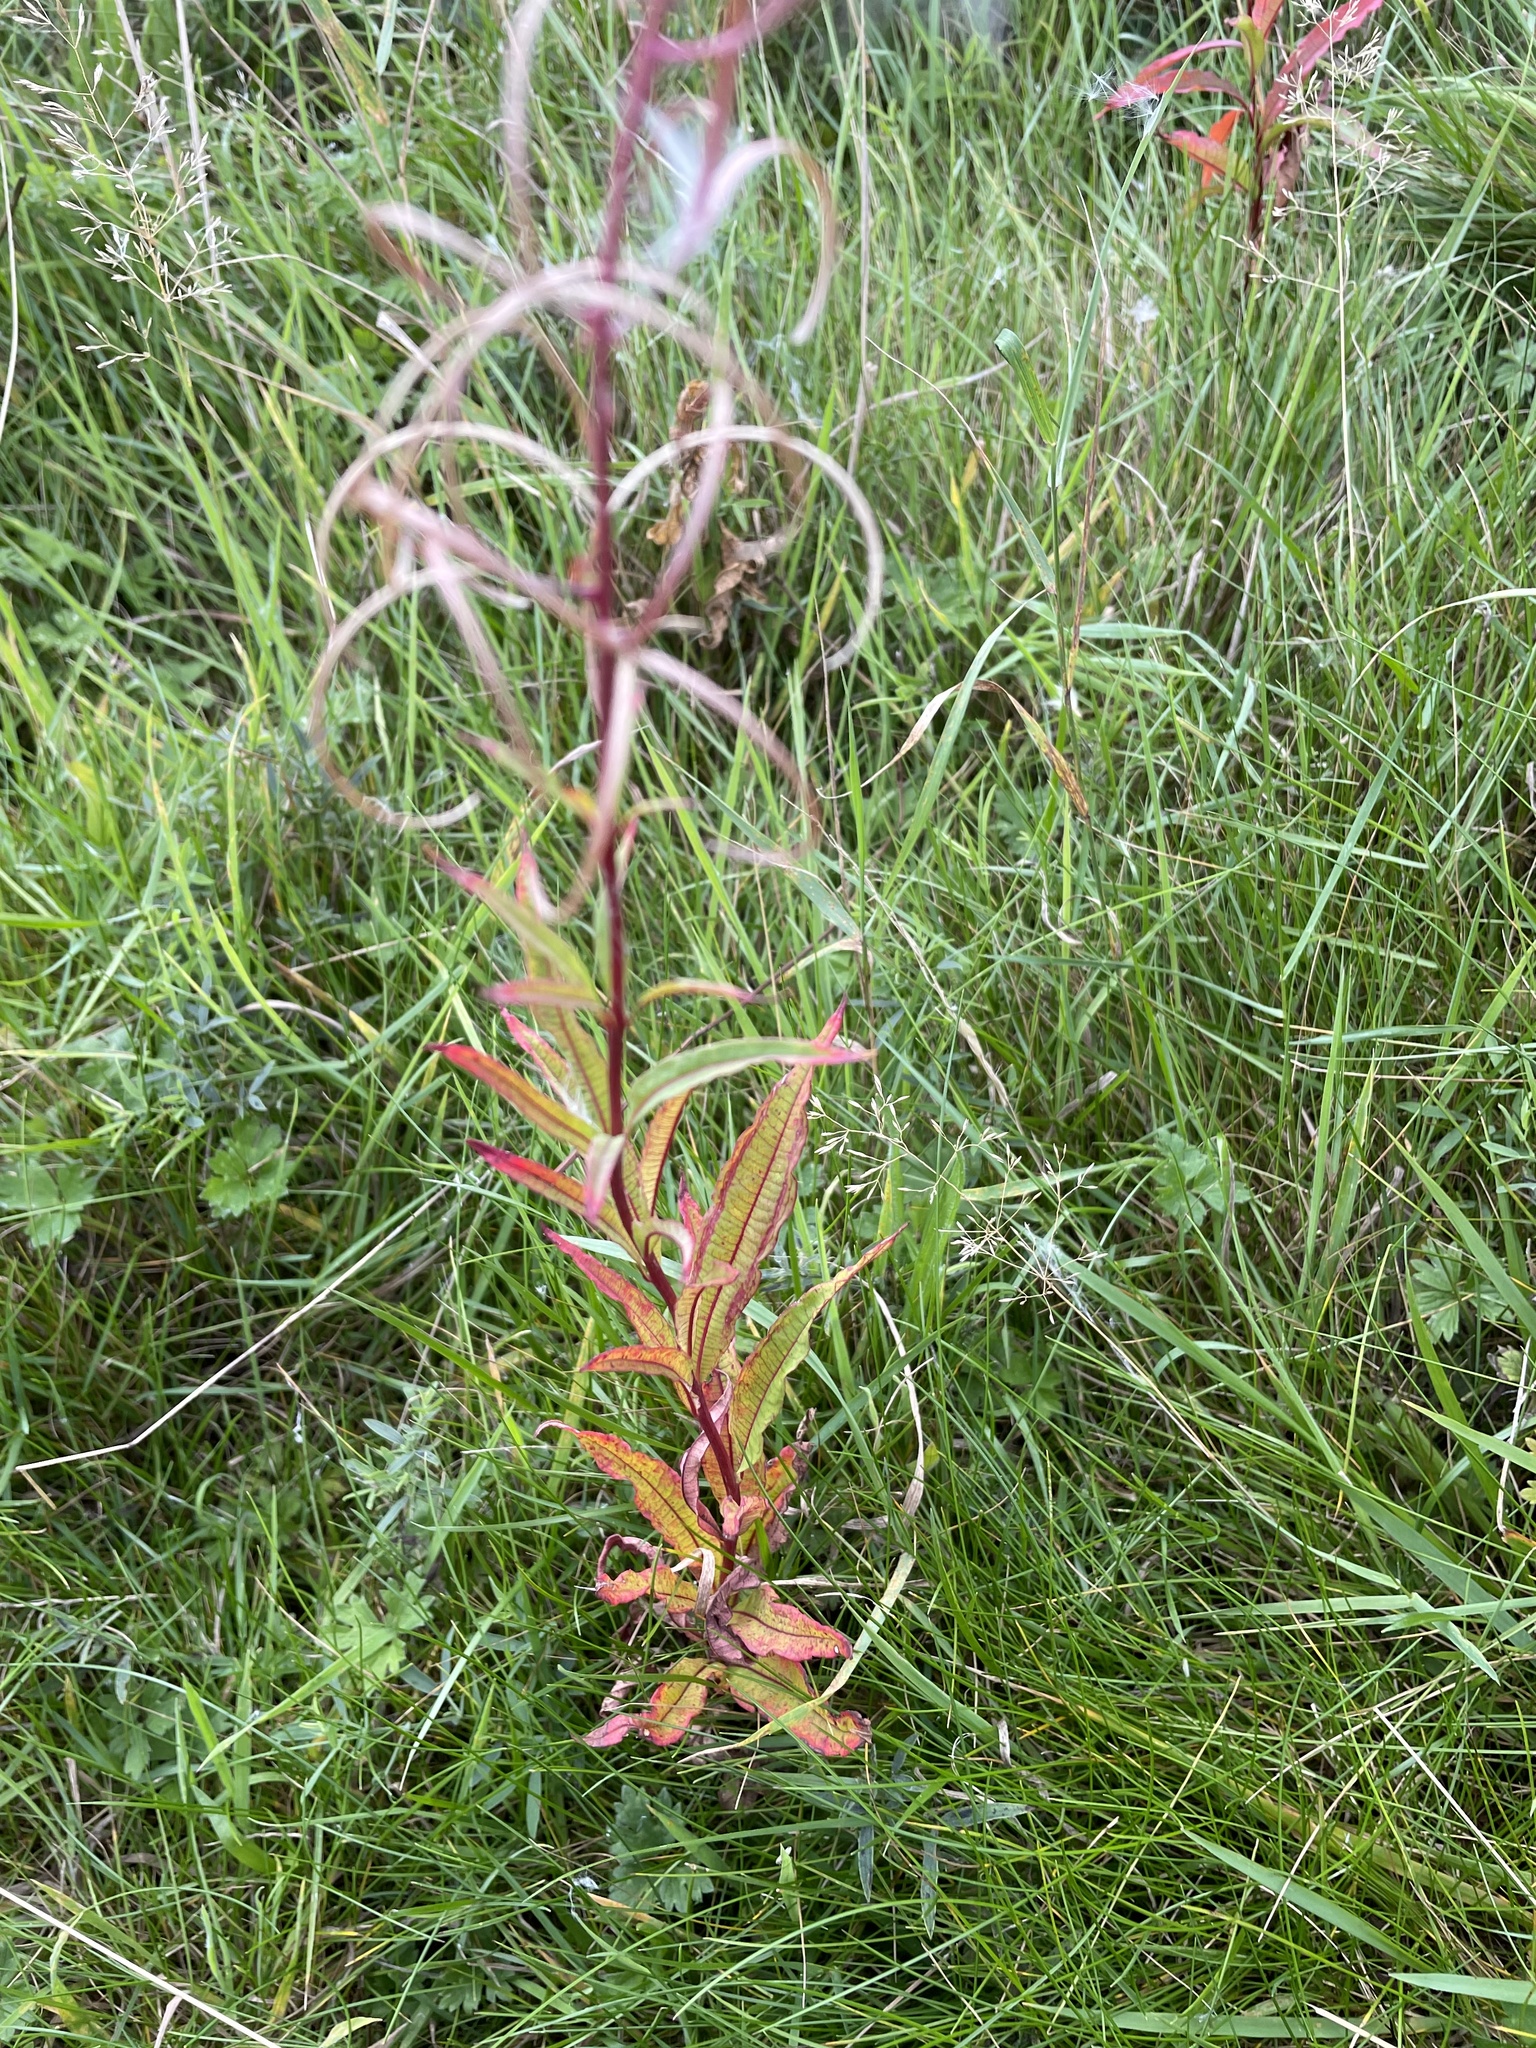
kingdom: Plantae
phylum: Tracheophyta
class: Magnoliopsida
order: Myrtales
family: Onagraceae
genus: Chamaenerion
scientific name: Chamaenerion angustifolium
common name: Fireweed
